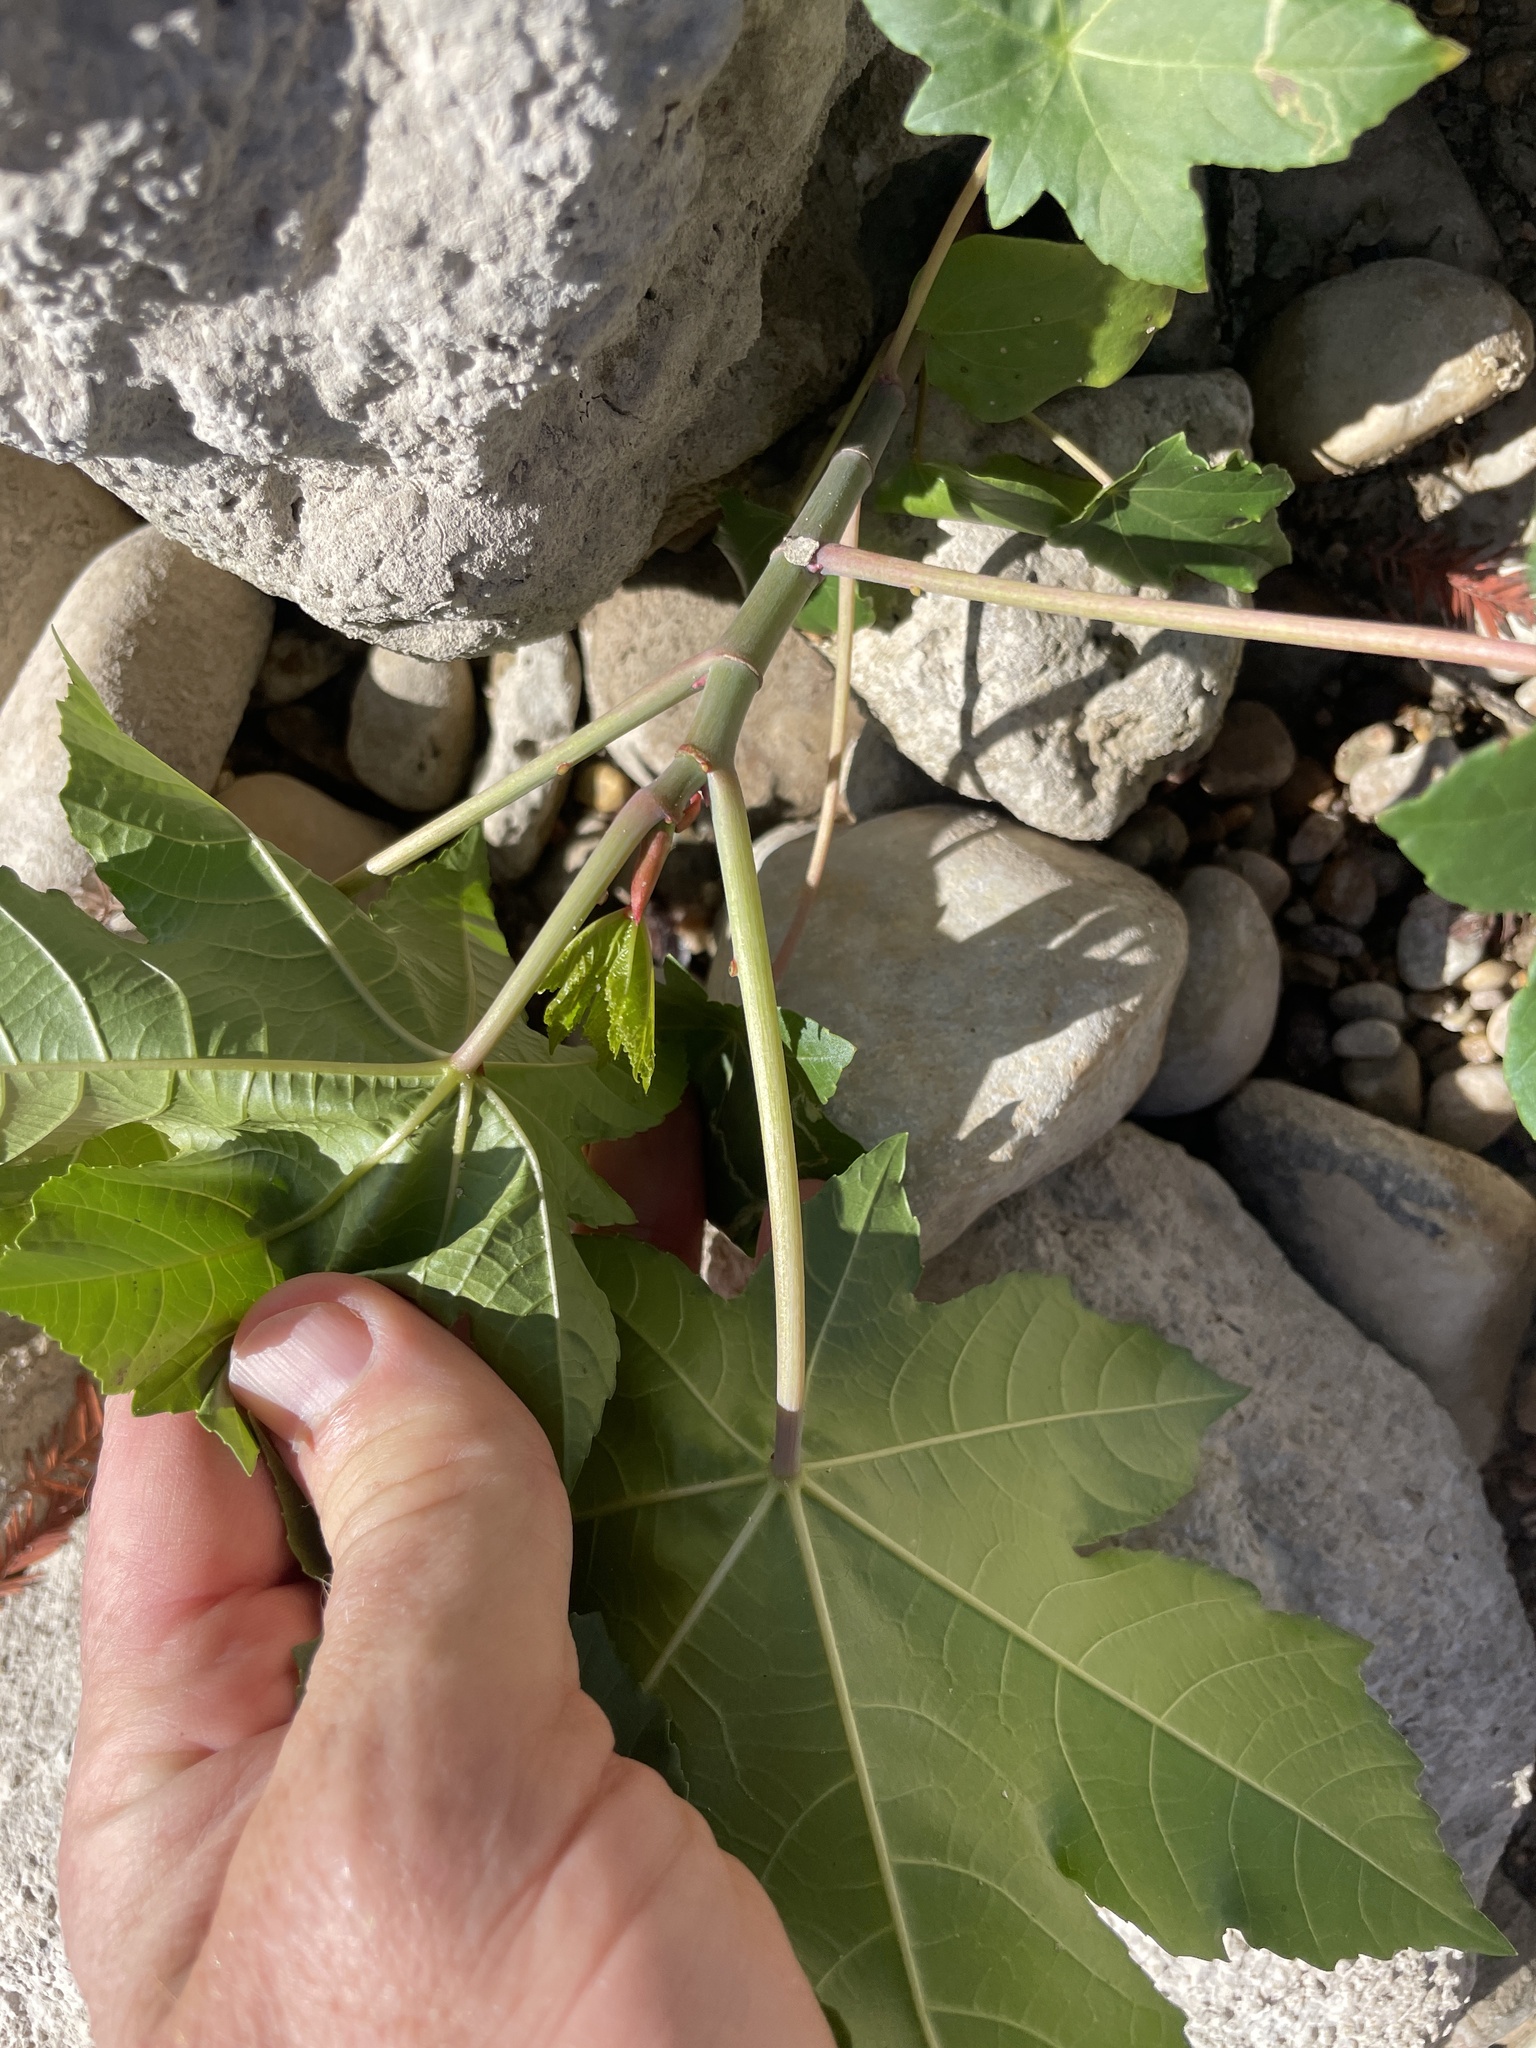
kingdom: Plantae
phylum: Tracheophyta
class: Magnoliopsida
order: Malpighiales
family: Euphorbiaceae
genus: Ricinus
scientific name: Ricinus communis
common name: Castor-oil-plant
